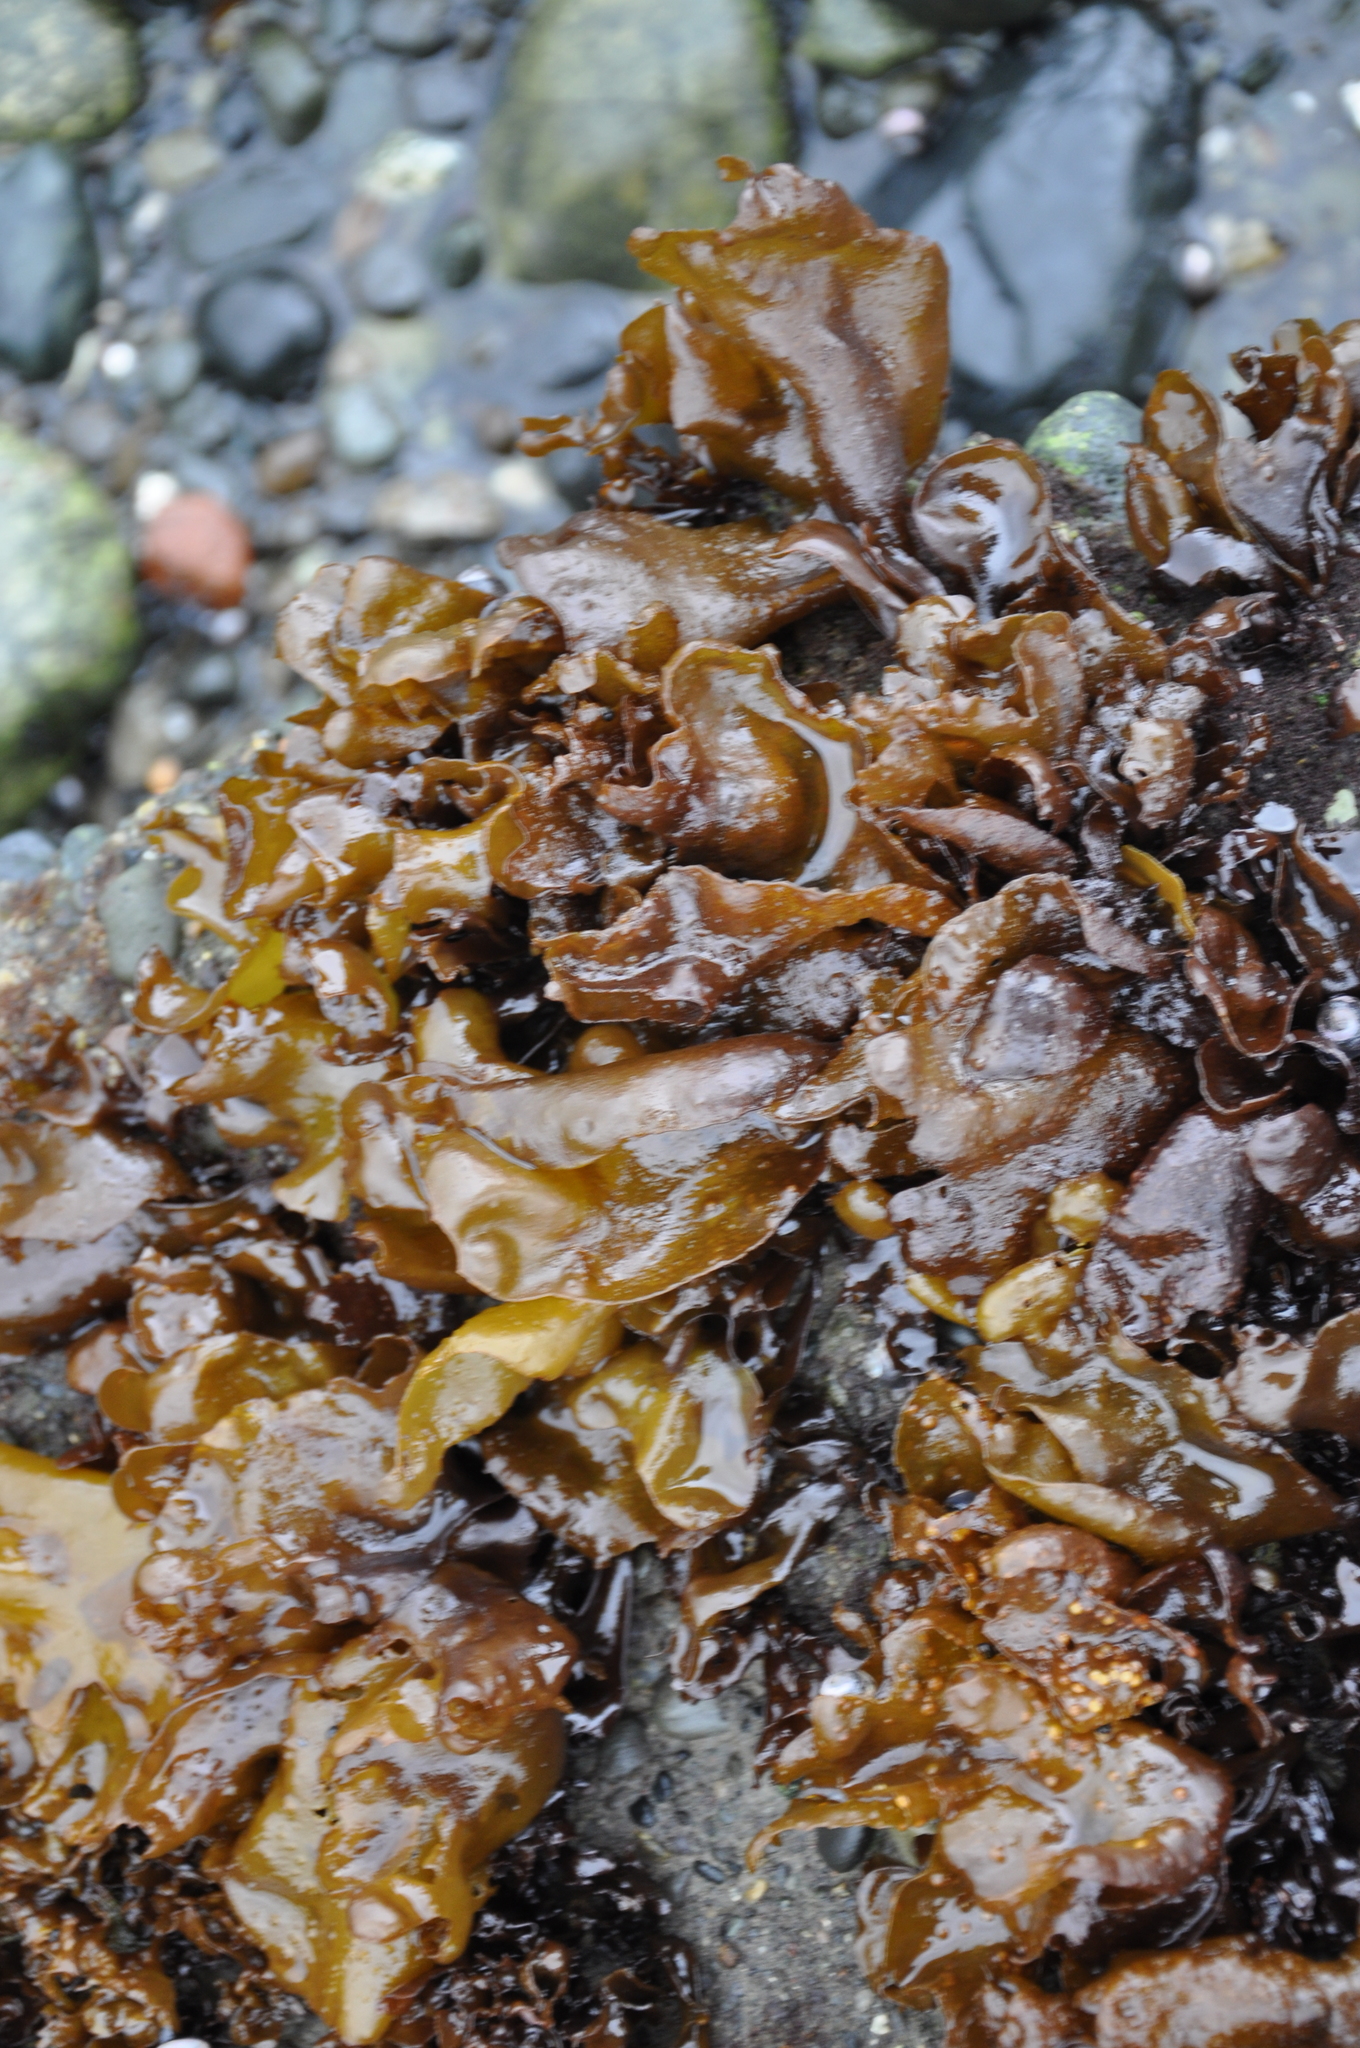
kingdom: Plantae
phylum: Rhodophyta
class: Florideophyceae
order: Gigartinales
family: Gigartinaceae
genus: Mazzaella
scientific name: Mazzaella laminarioides
